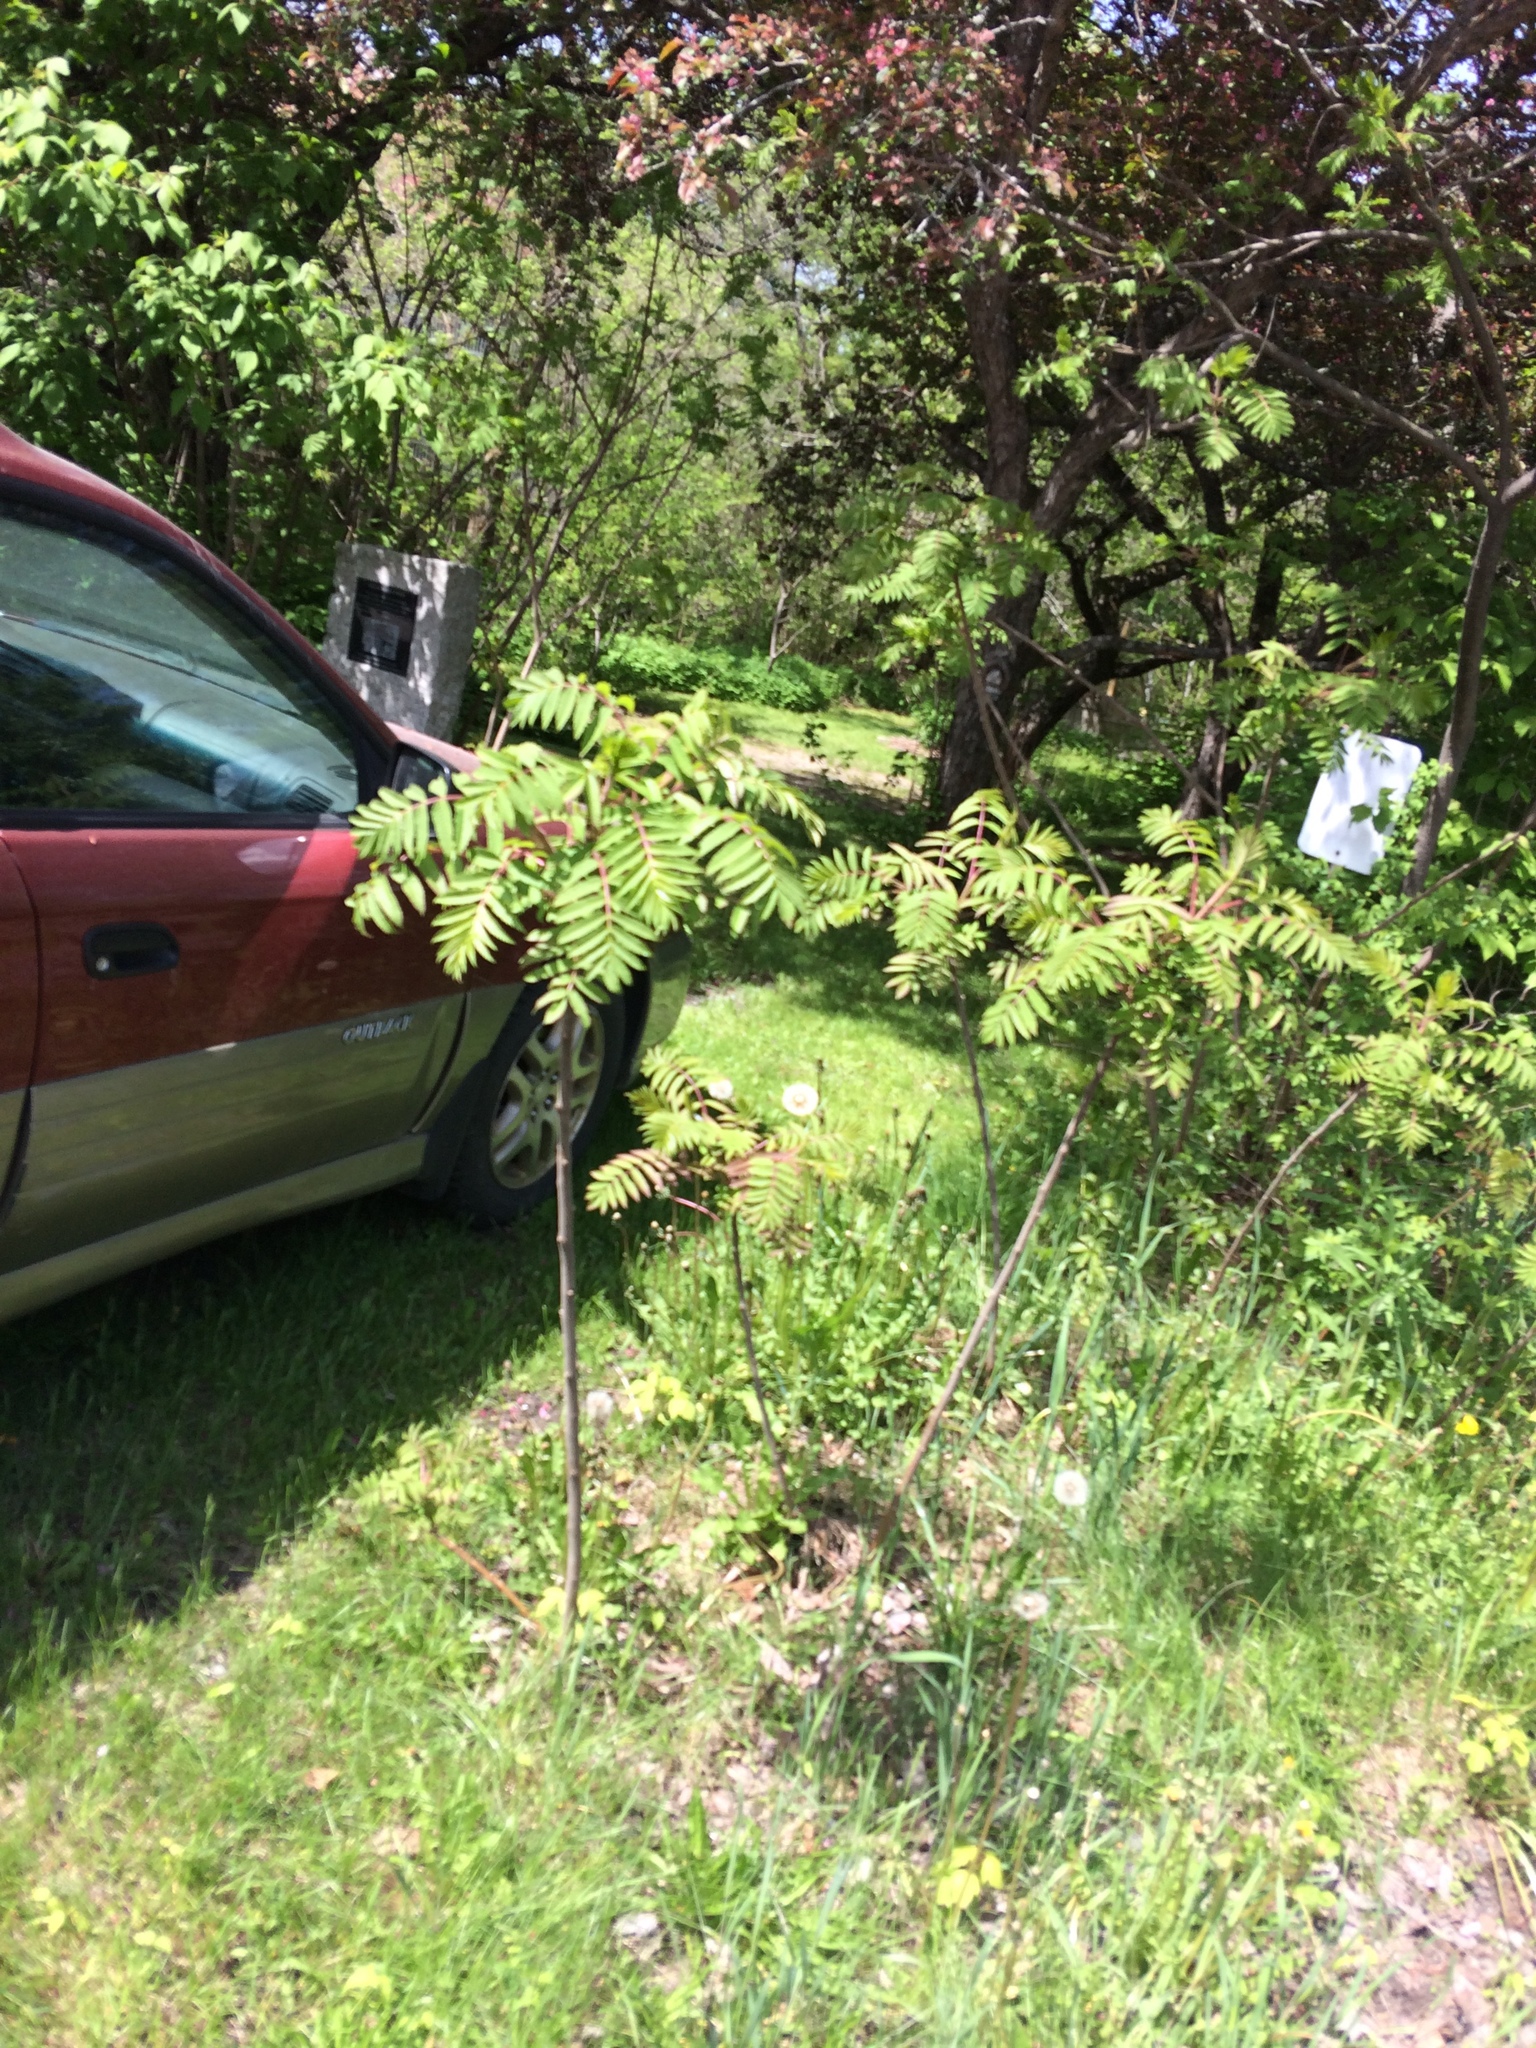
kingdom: Plantae
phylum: Tracheophyta
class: Magnoliopsida
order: Sapindales
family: Anacardiaceae
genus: Rhus
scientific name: Rhus typhina
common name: Staghorn sumac
